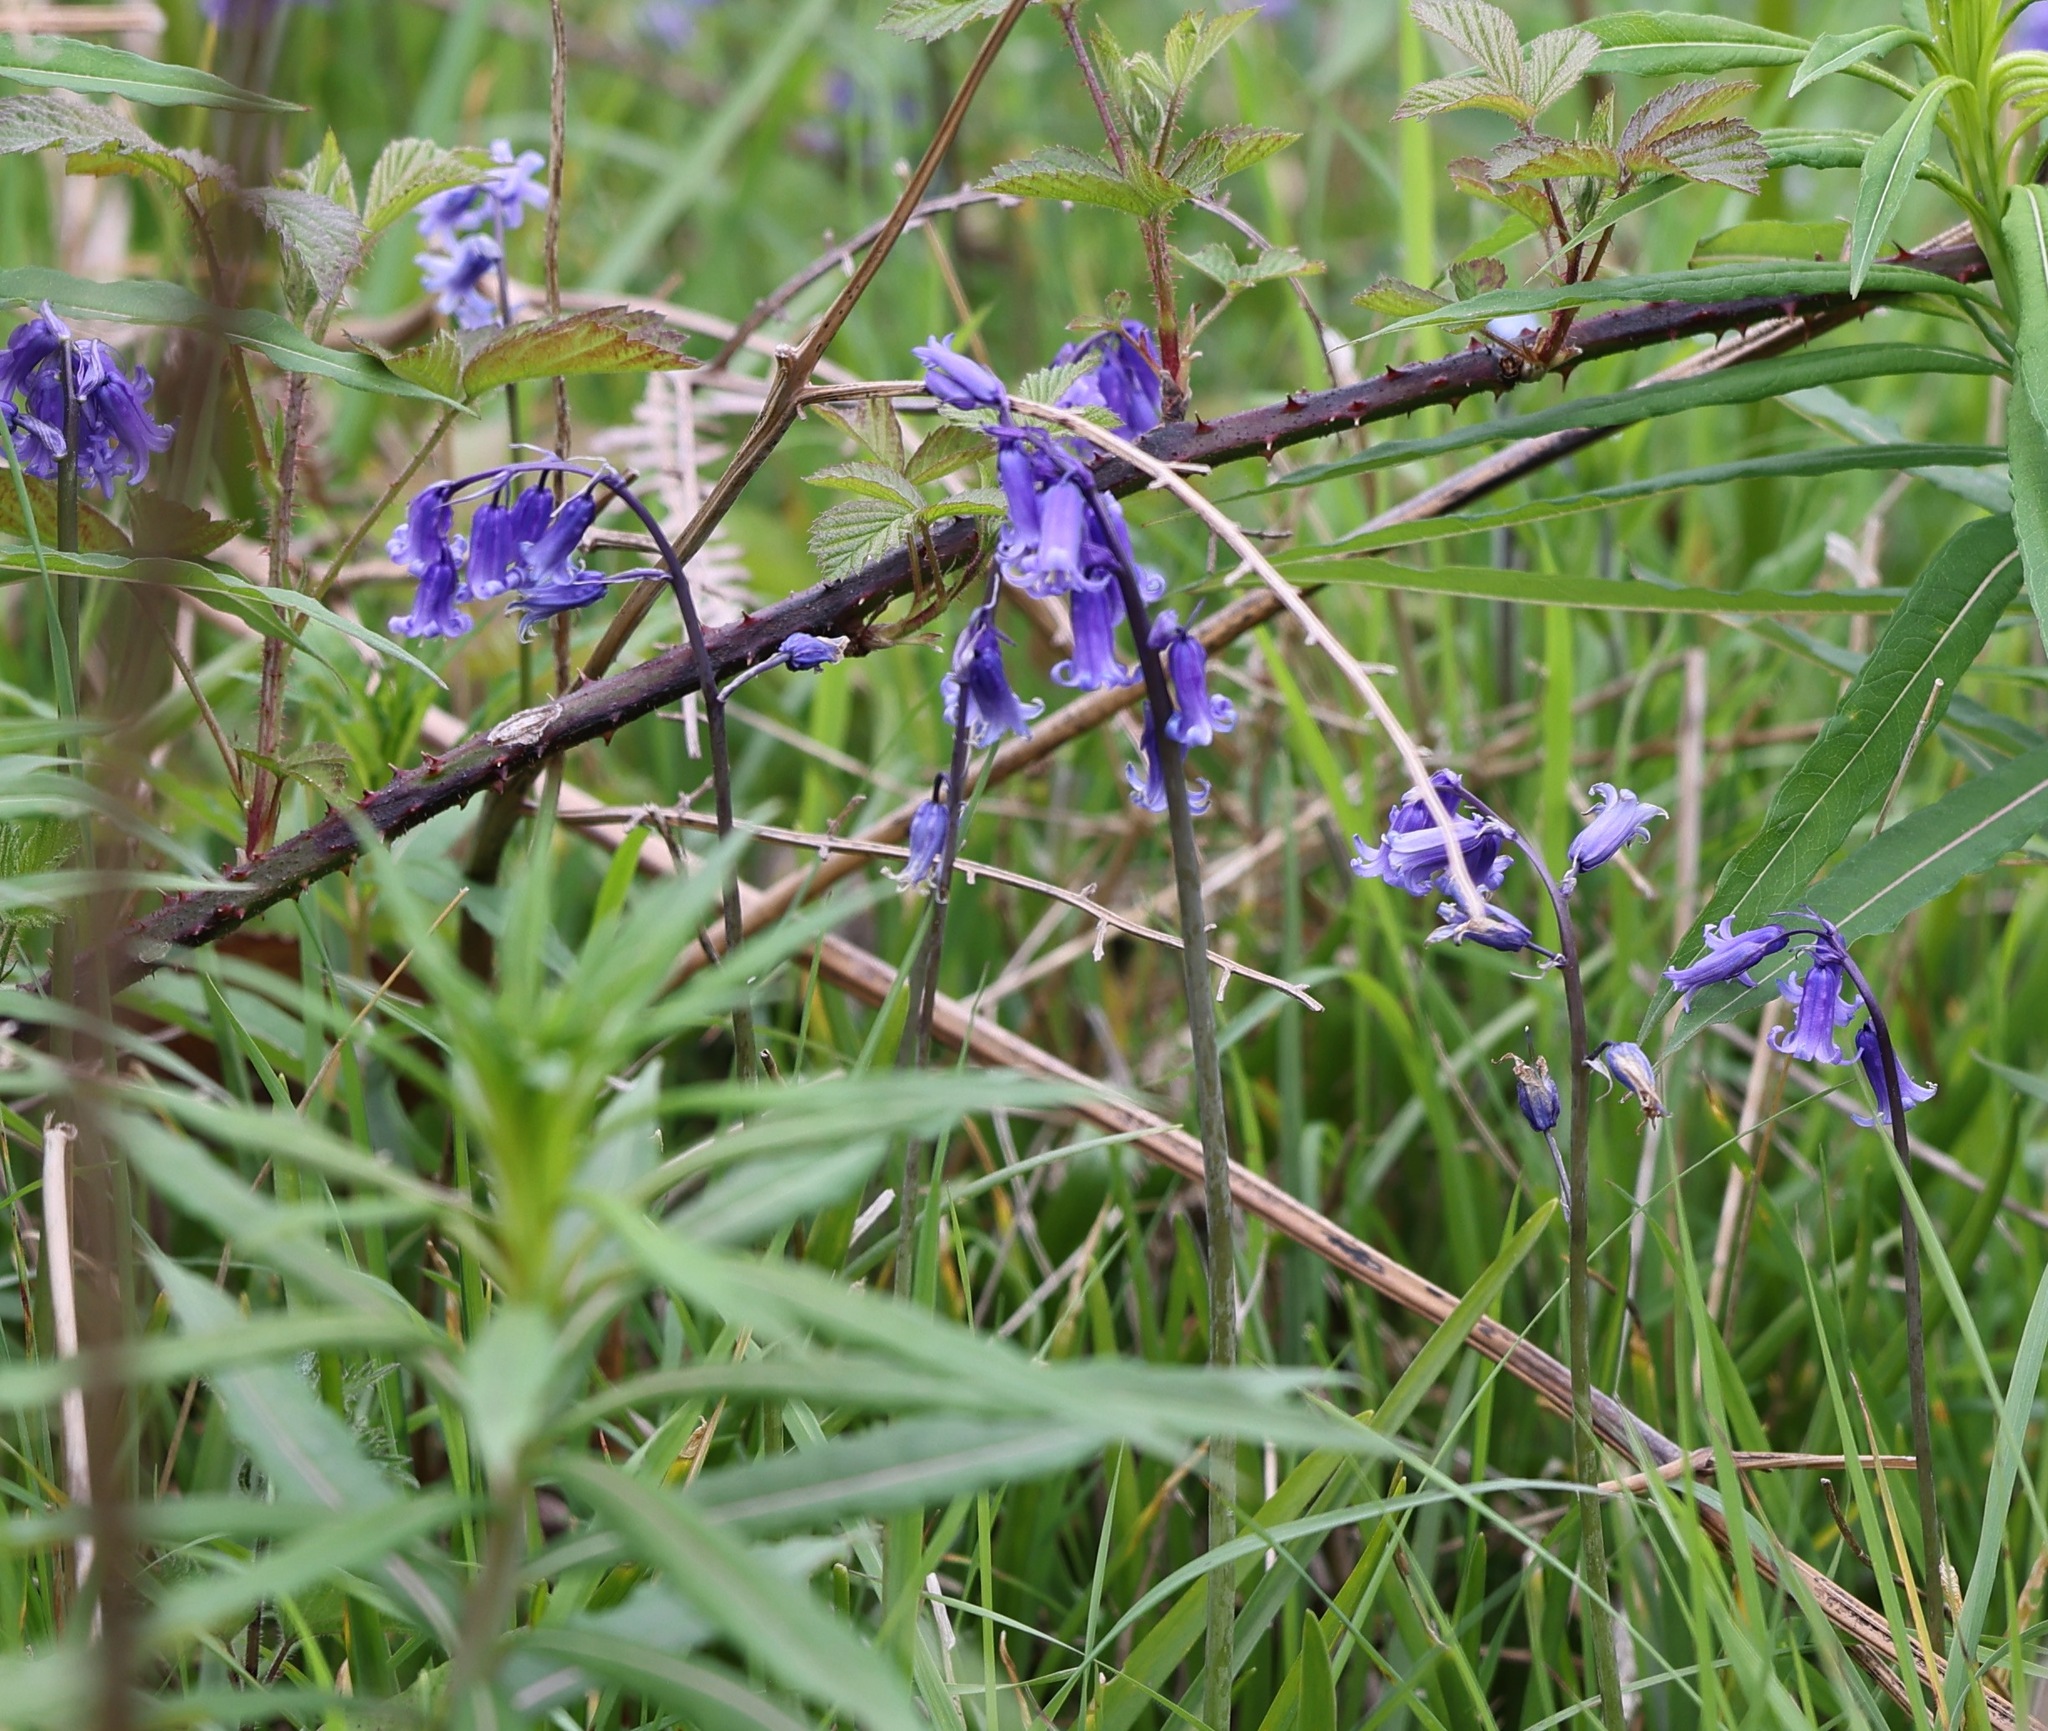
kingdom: Plantae
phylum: Tracheophyta
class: Liliopsida
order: Asparagales
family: Asparagaceae
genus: Hyacinthoides
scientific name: Hyacinthoides non-scripta
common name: Bluebell
